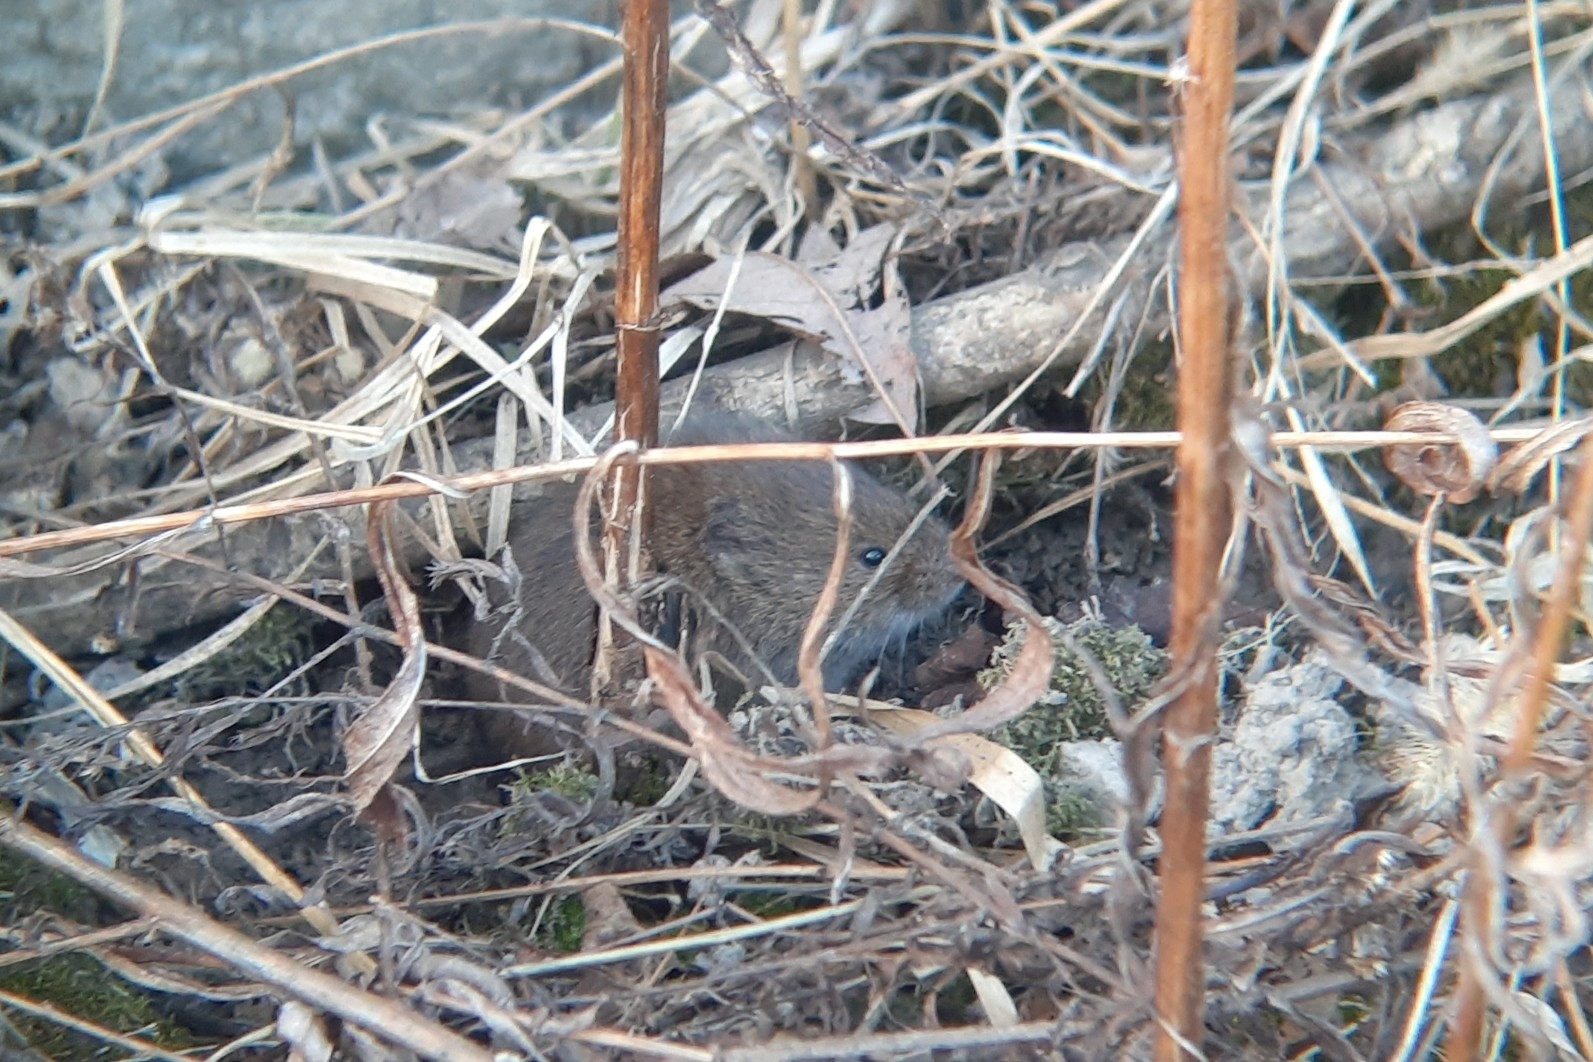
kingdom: Animalia
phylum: Chordata
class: Mammalia
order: Rodentia
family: Cricetidae
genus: Microtus
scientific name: Microtus pennsylvanicus
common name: Meadow vole
